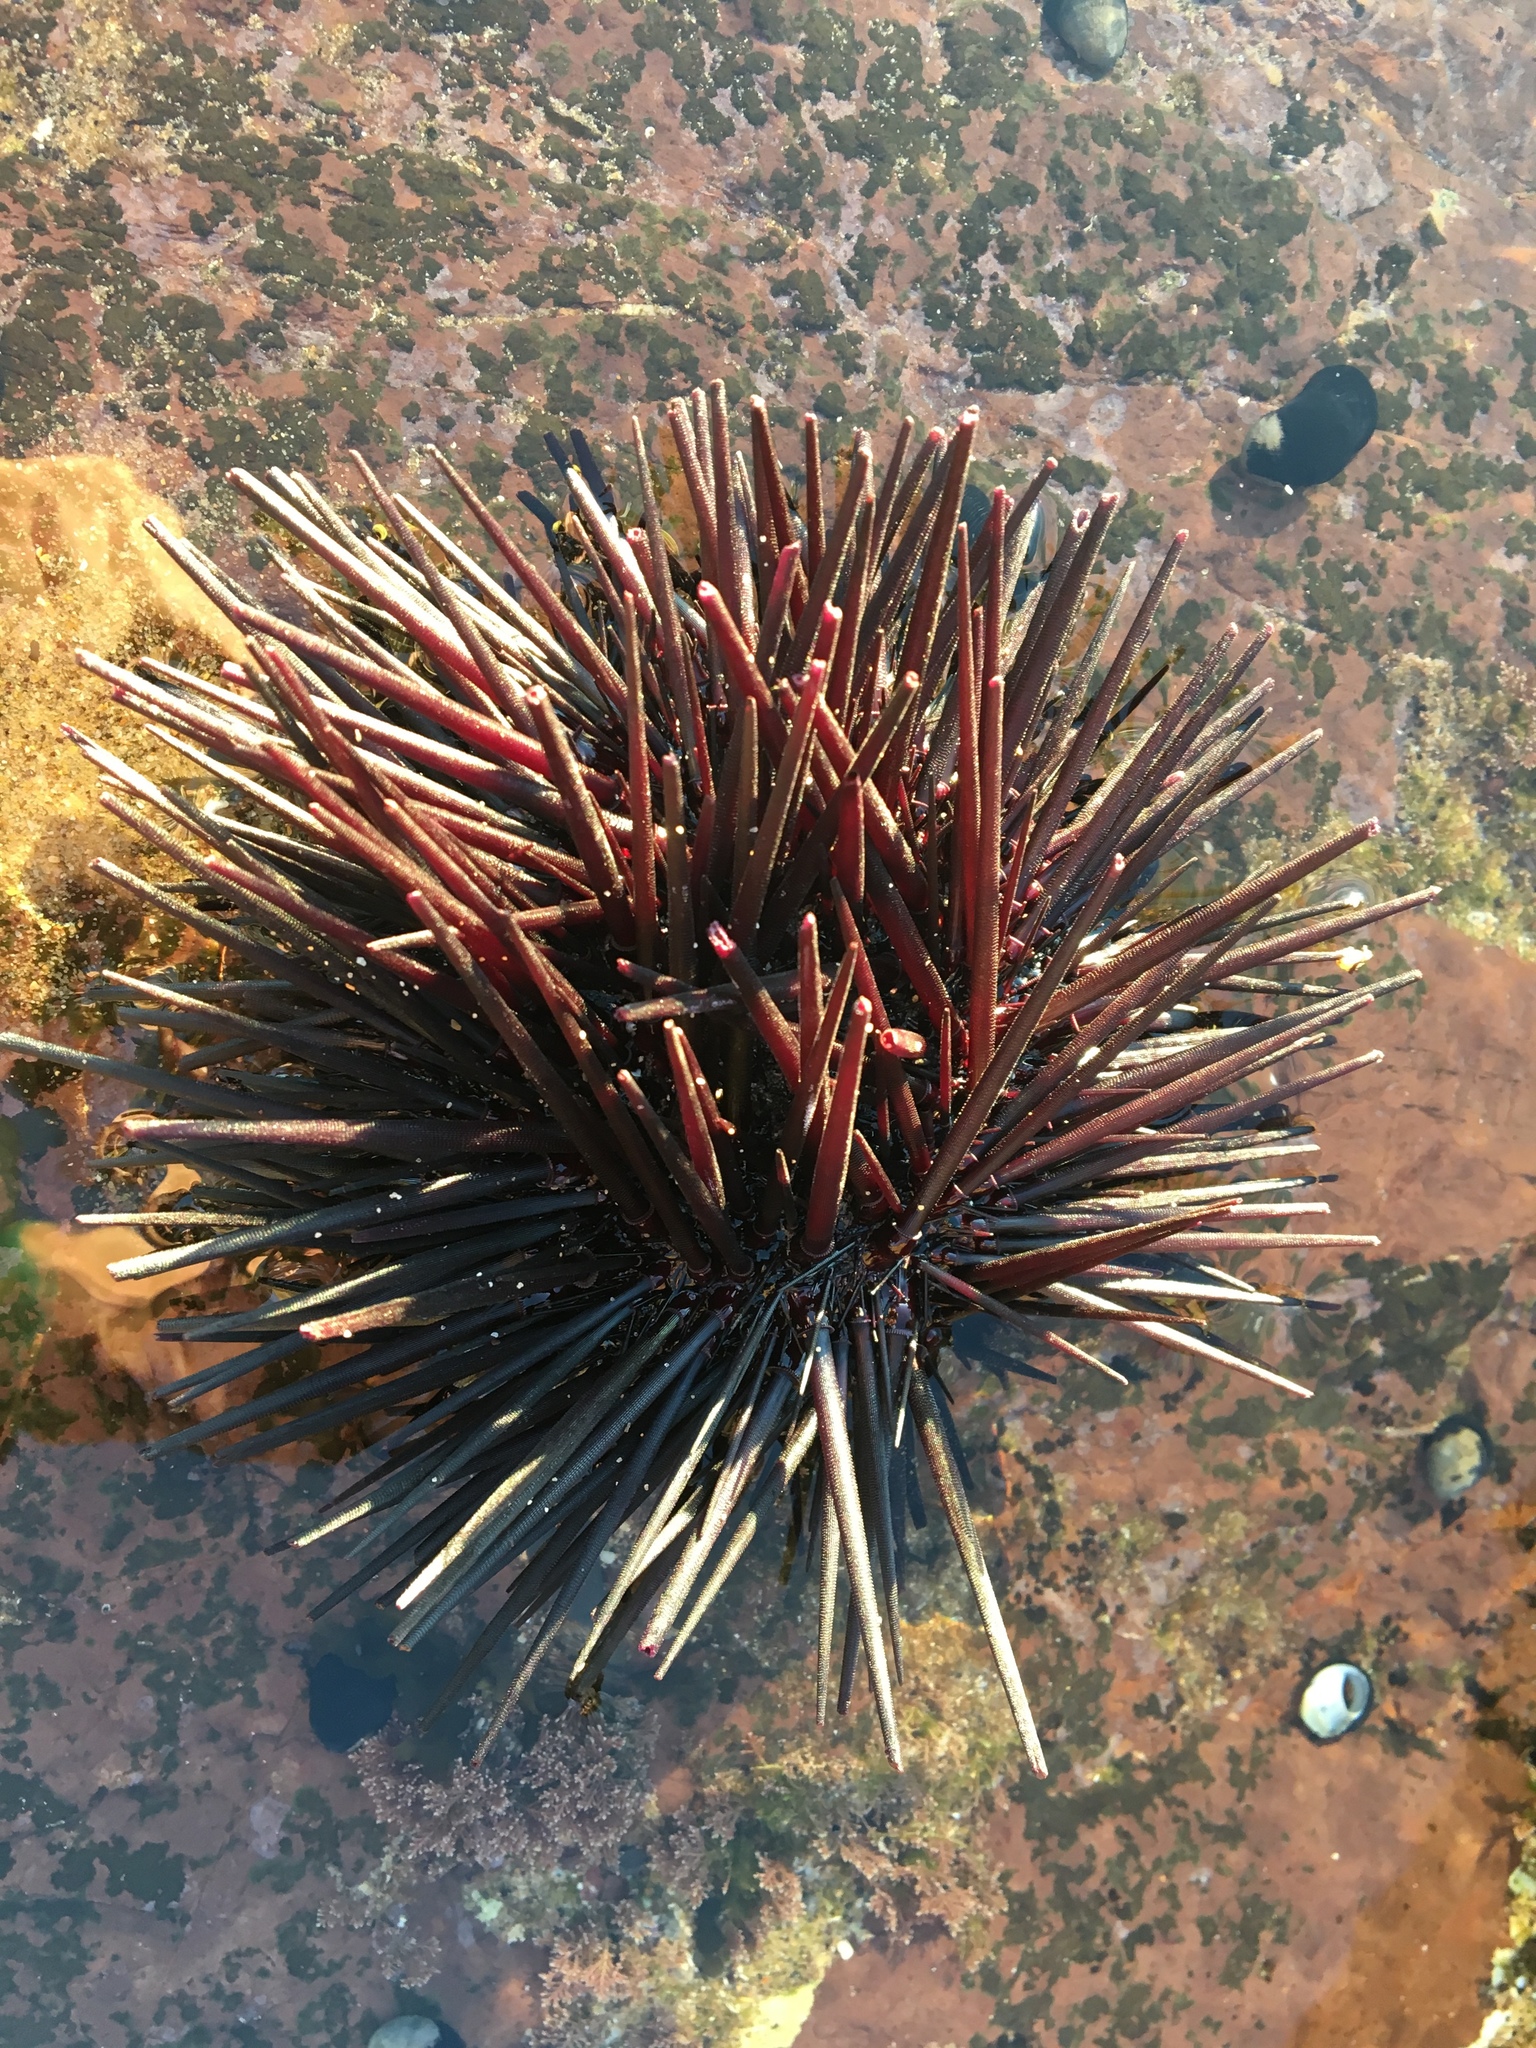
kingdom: Animalia
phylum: Echinodermata
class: Echinoidea
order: Diadematoida
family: Diadematidae
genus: Centrostephanus
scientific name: Centrostephanus rodgersii
